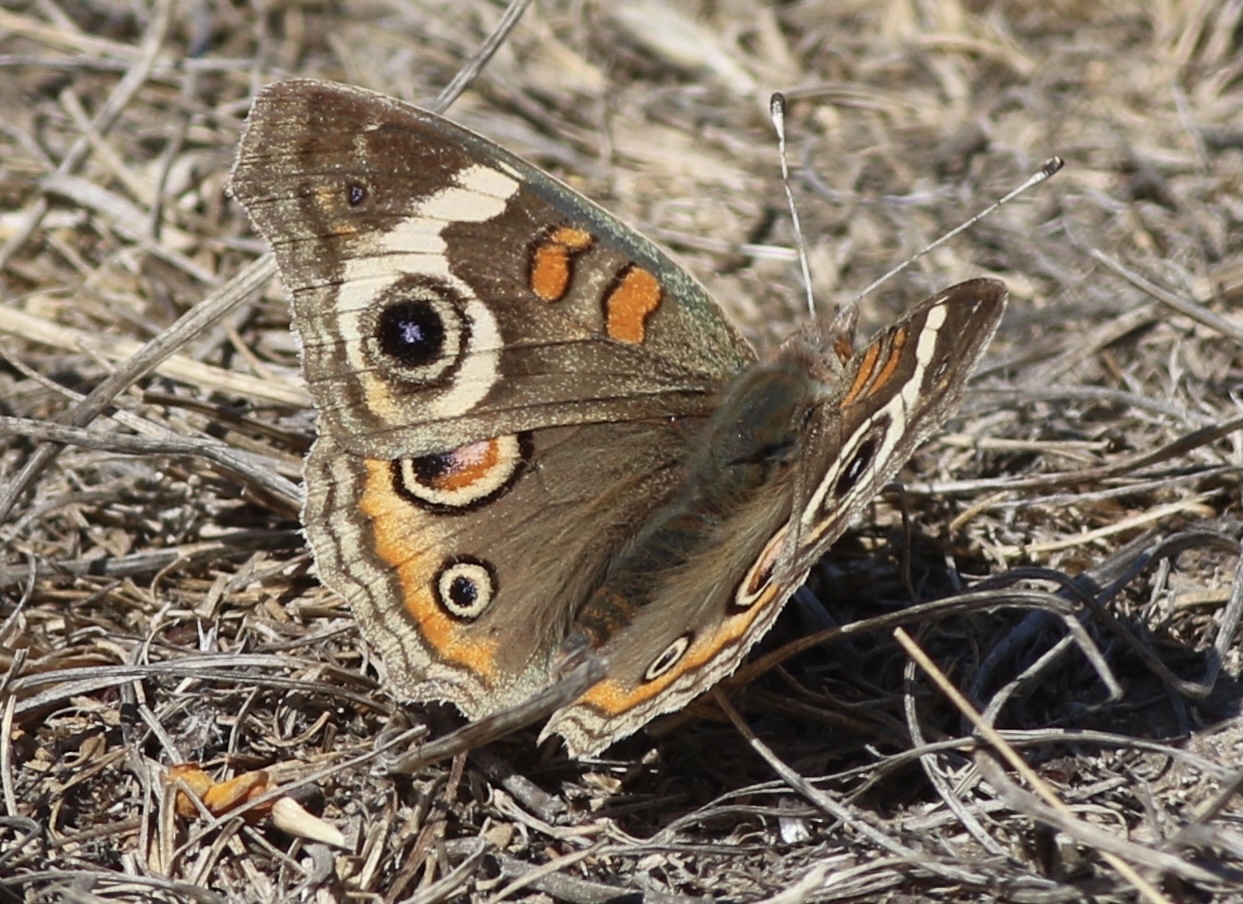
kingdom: Animalia
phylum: Arthropoda
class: Insecta
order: Lepidoptera
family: Nymphalidae
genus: Junonia
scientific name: Junonia grisea
